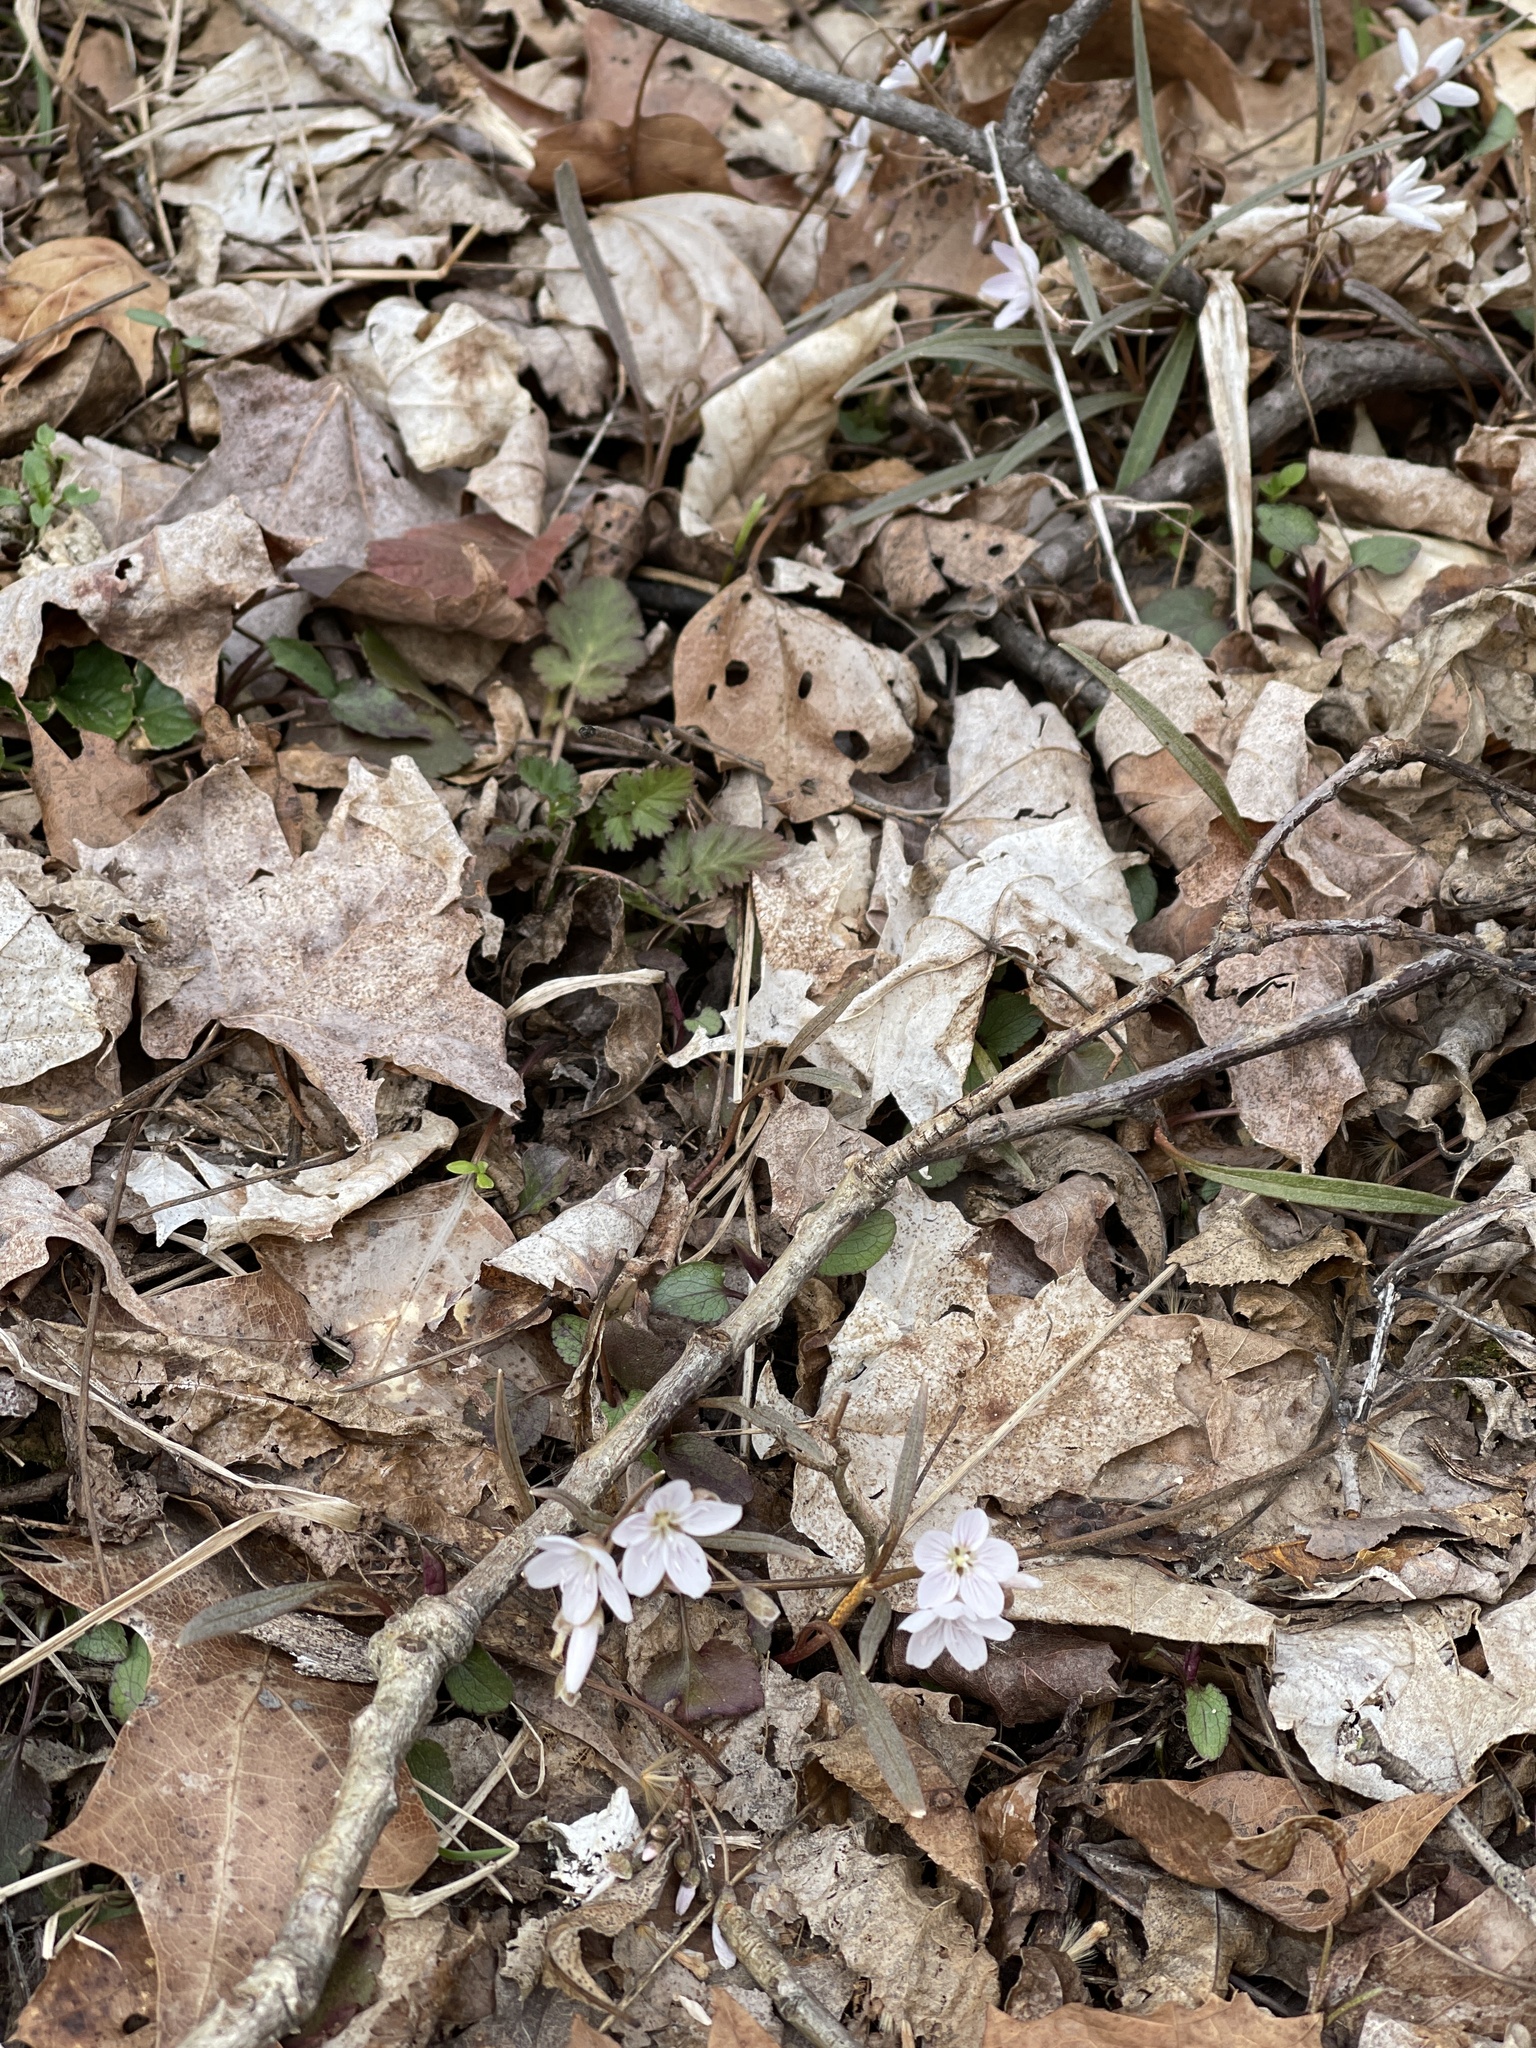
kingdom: Plantae
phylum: Tracheophyta
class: Magnoliopsida
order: Caryophyllales
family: Montiaceae
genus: Claytonia
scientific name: Claytonia virginica
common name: Virginia springbeauty
